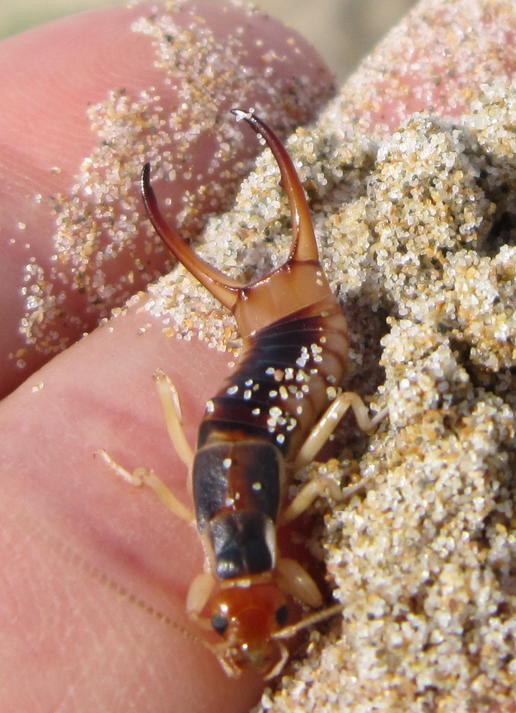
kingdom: Animalia
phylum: Arthropoda
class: Insecta
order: Dermaptera
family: Labiduridae
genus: Labidura
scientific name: Labidura riparia
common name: Striped earwig
